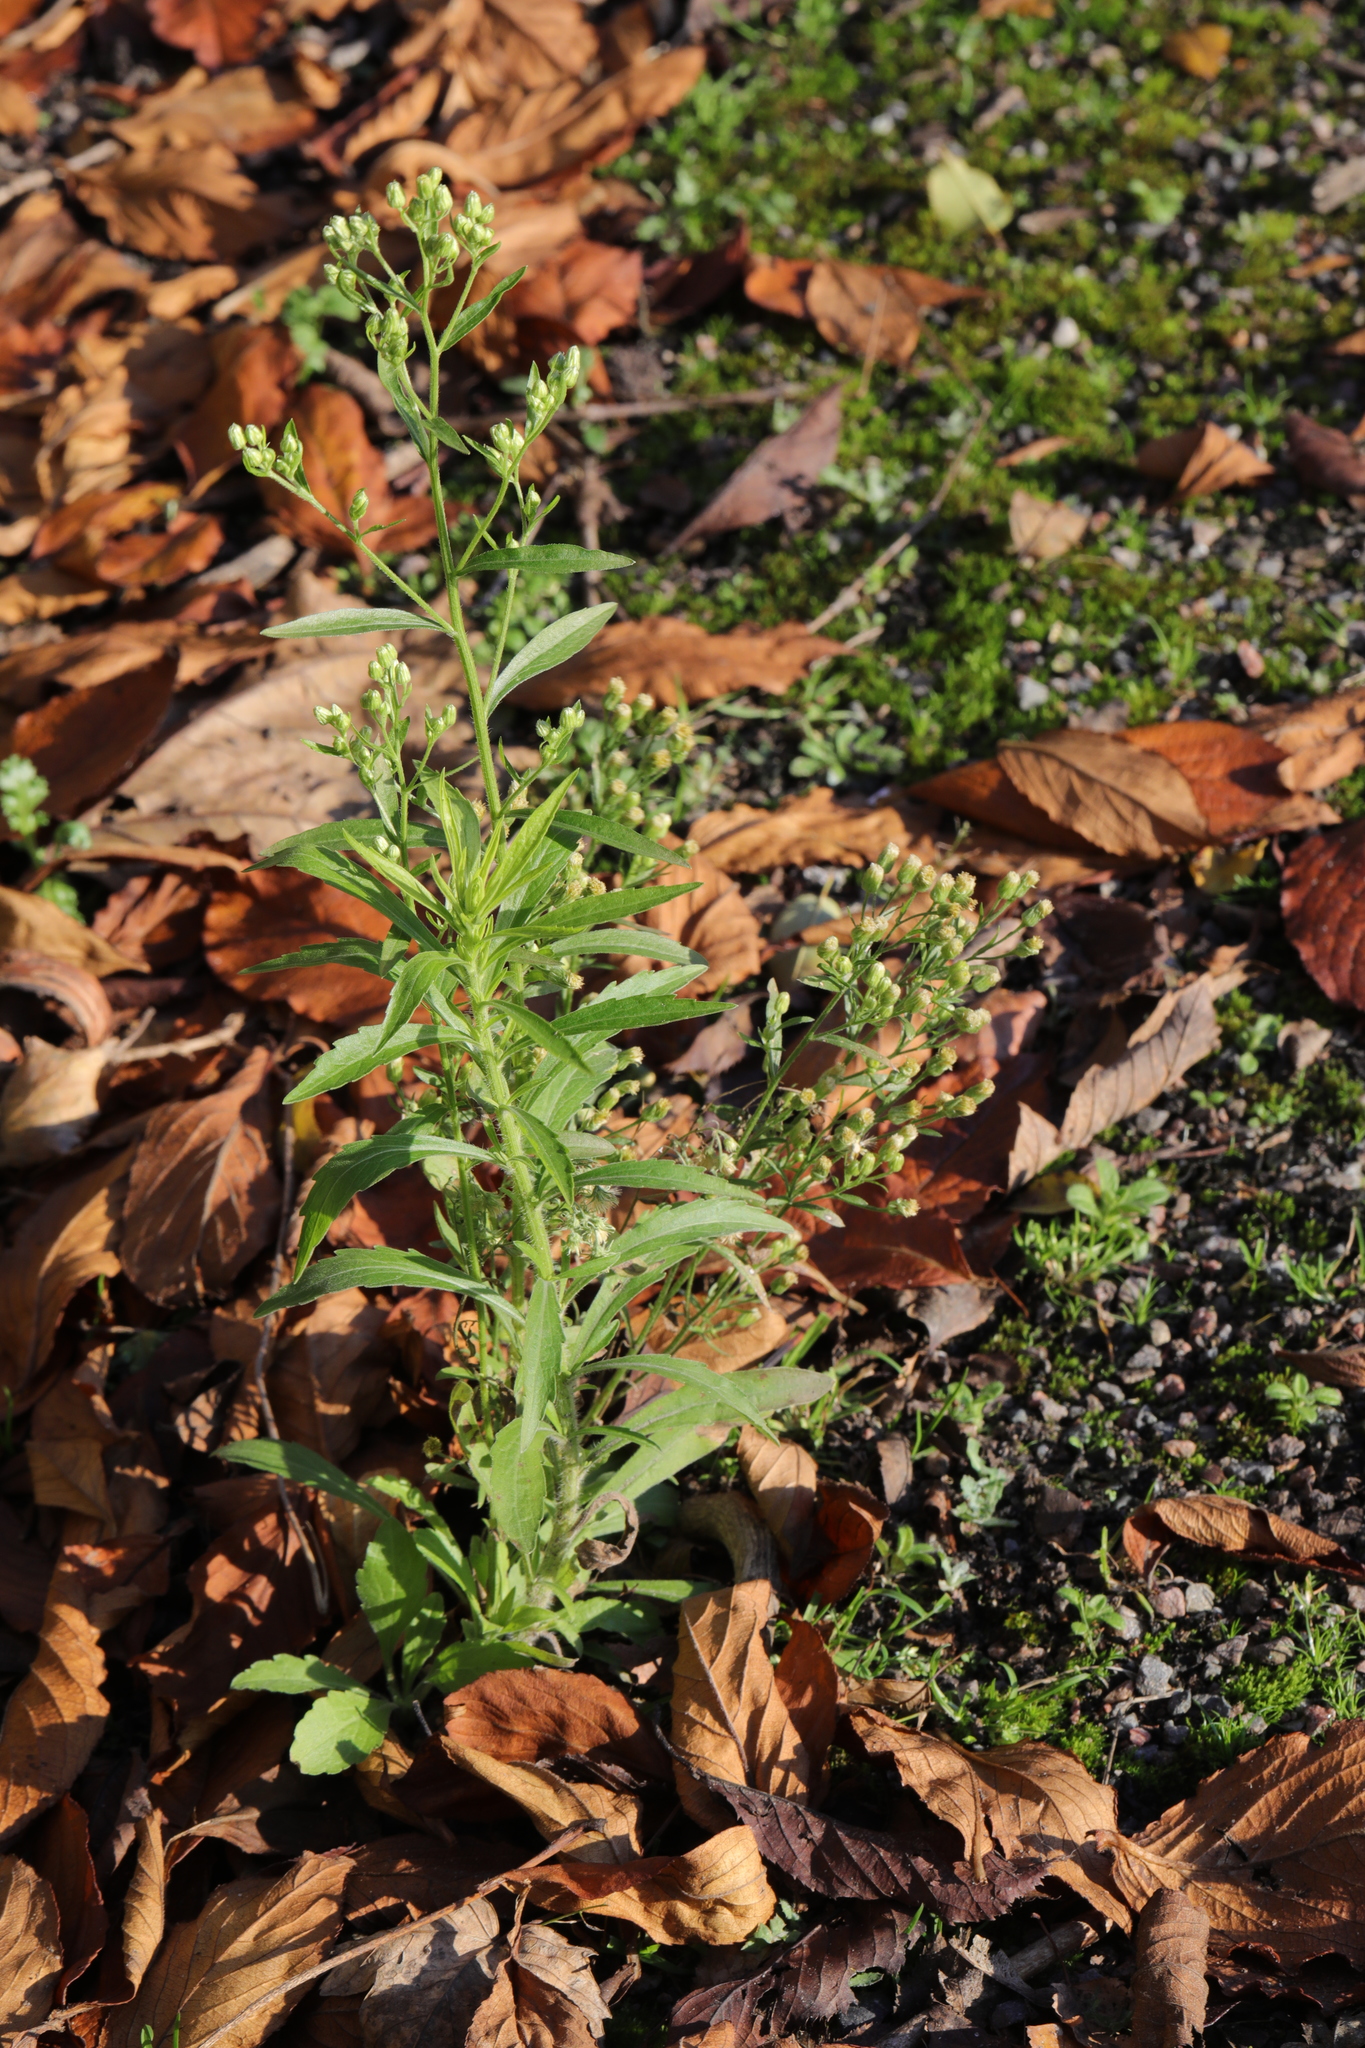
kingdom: Plantae
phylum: Tracheophyta
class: Magnoliopsida
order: Asterales
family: Asteraceae
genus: Erigeron
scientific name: Erigeron canadensis
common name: Canadian fleabane
